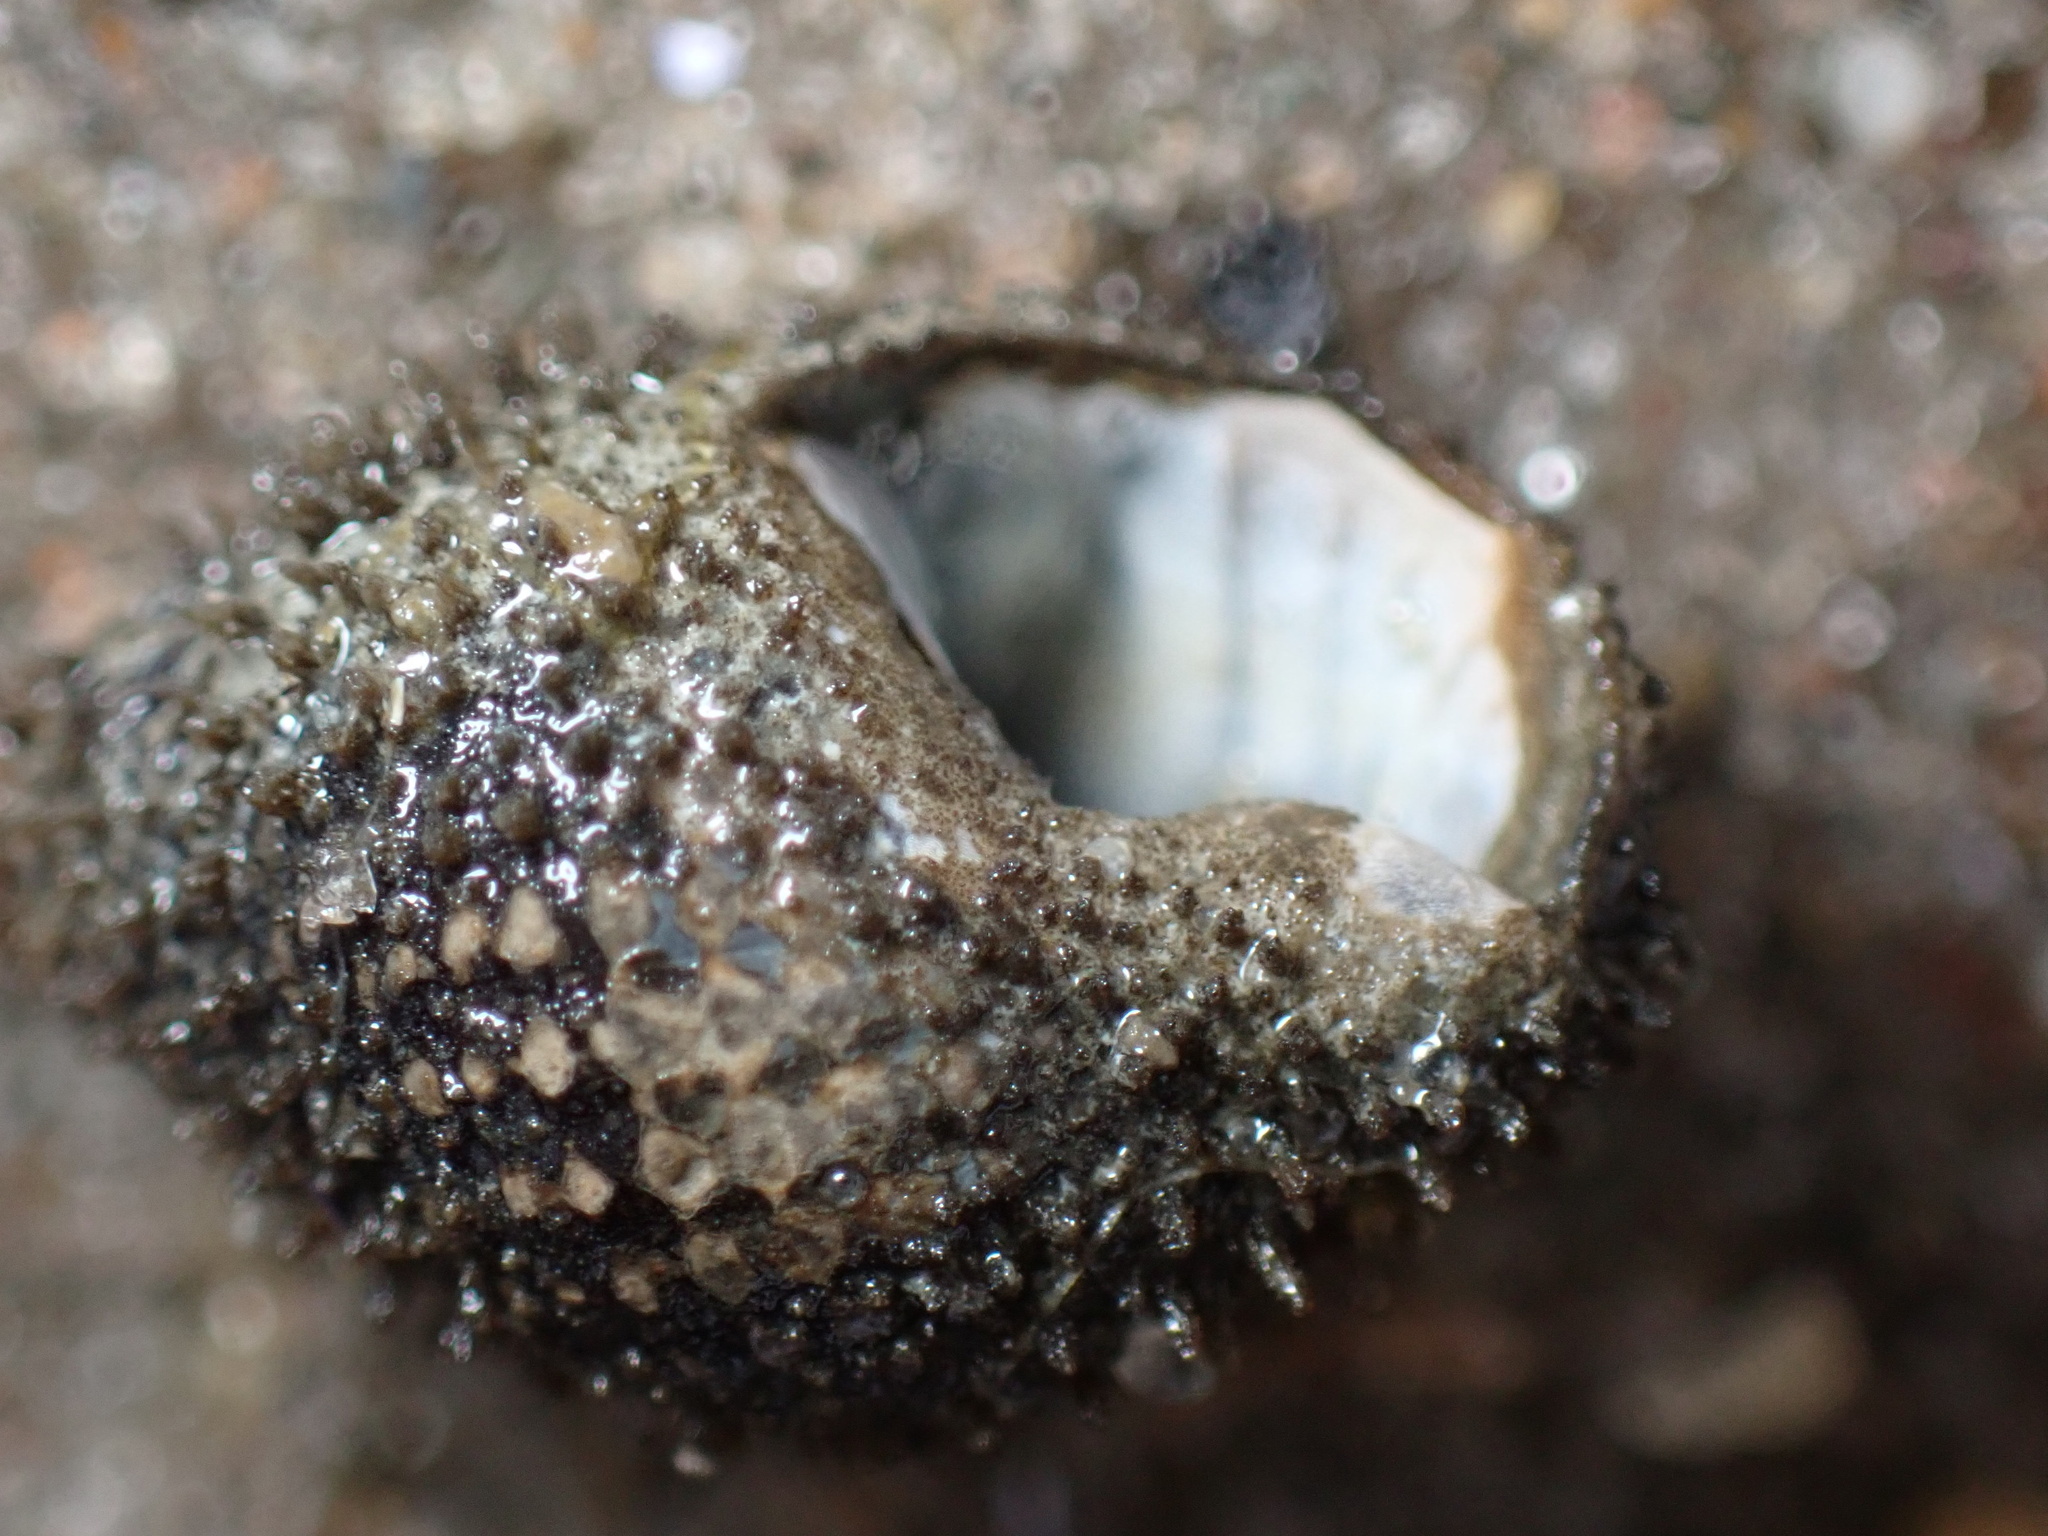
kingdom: Animalia
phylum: Mollusca
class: Gastropoda
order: Neogastropoda
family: Nassariidae
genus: Ilyanassa
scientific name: Ilyanassa obsoleta
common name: Eastern mudsnail
